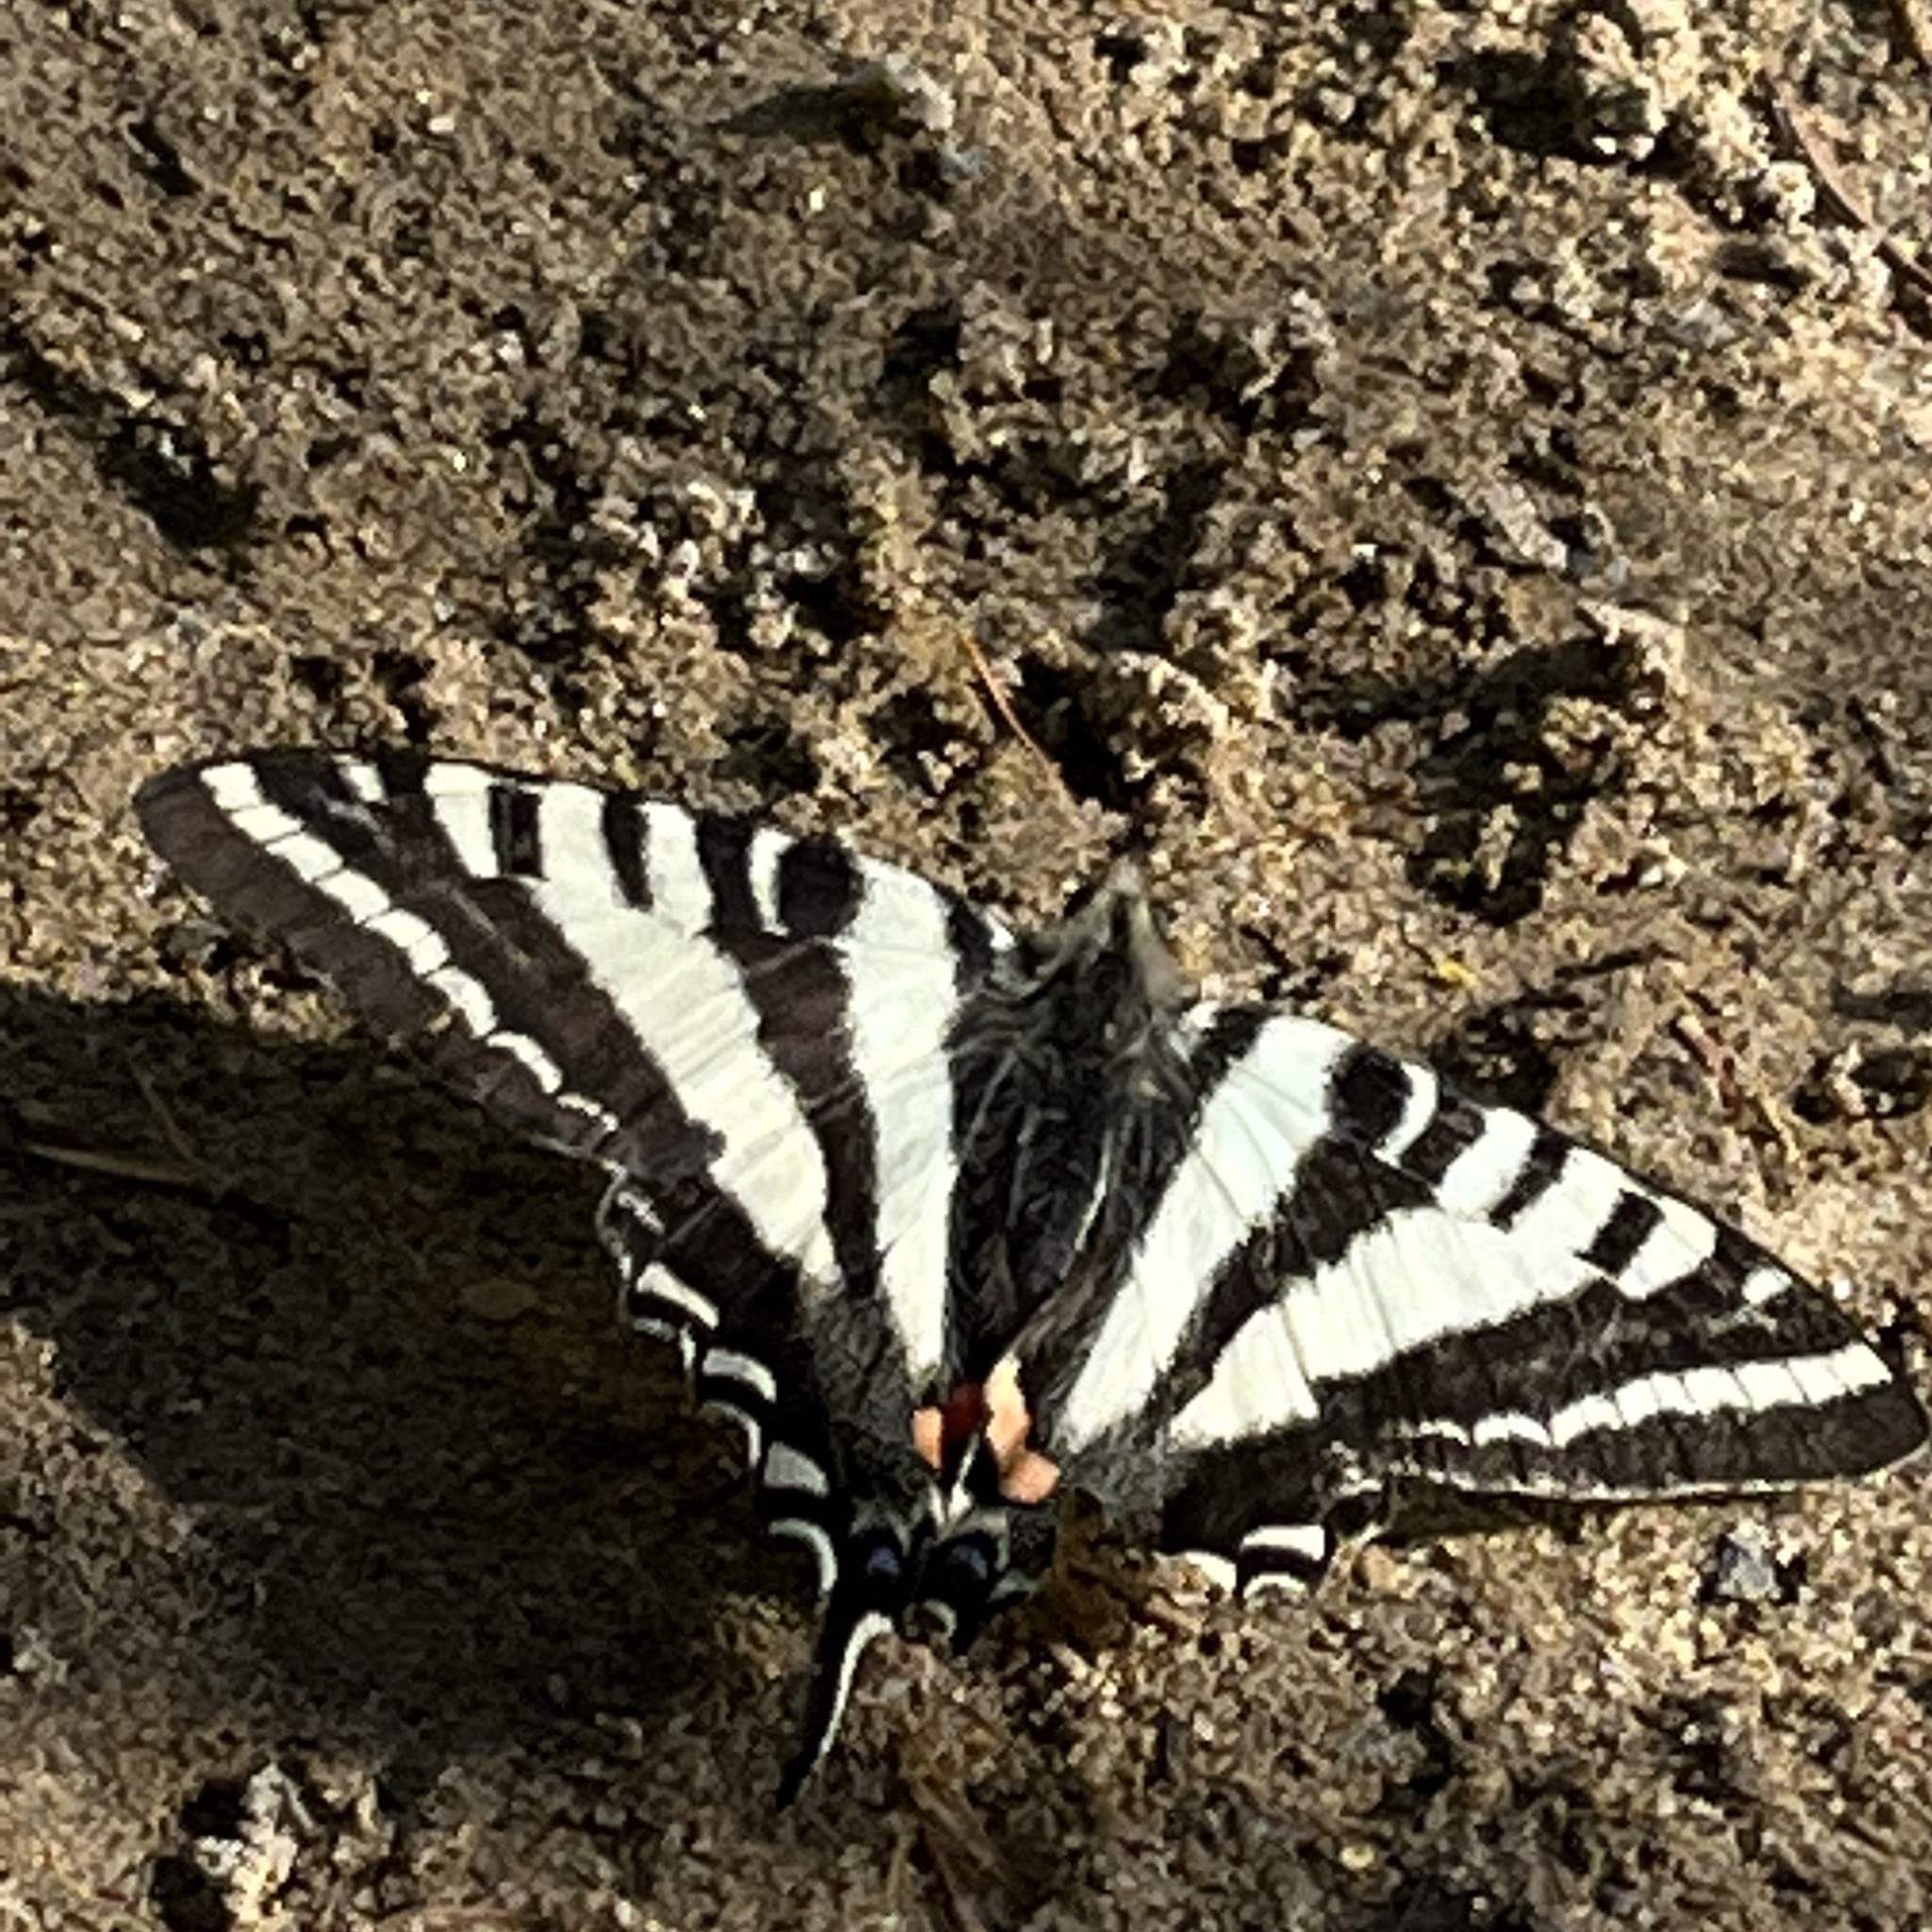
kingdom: Animalia
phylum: Arthropoda
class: Insecta
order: Lepidoptera
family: Papilionidae
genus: Protographium
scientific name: Protographium marcellus
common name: Zebra swallowtail
